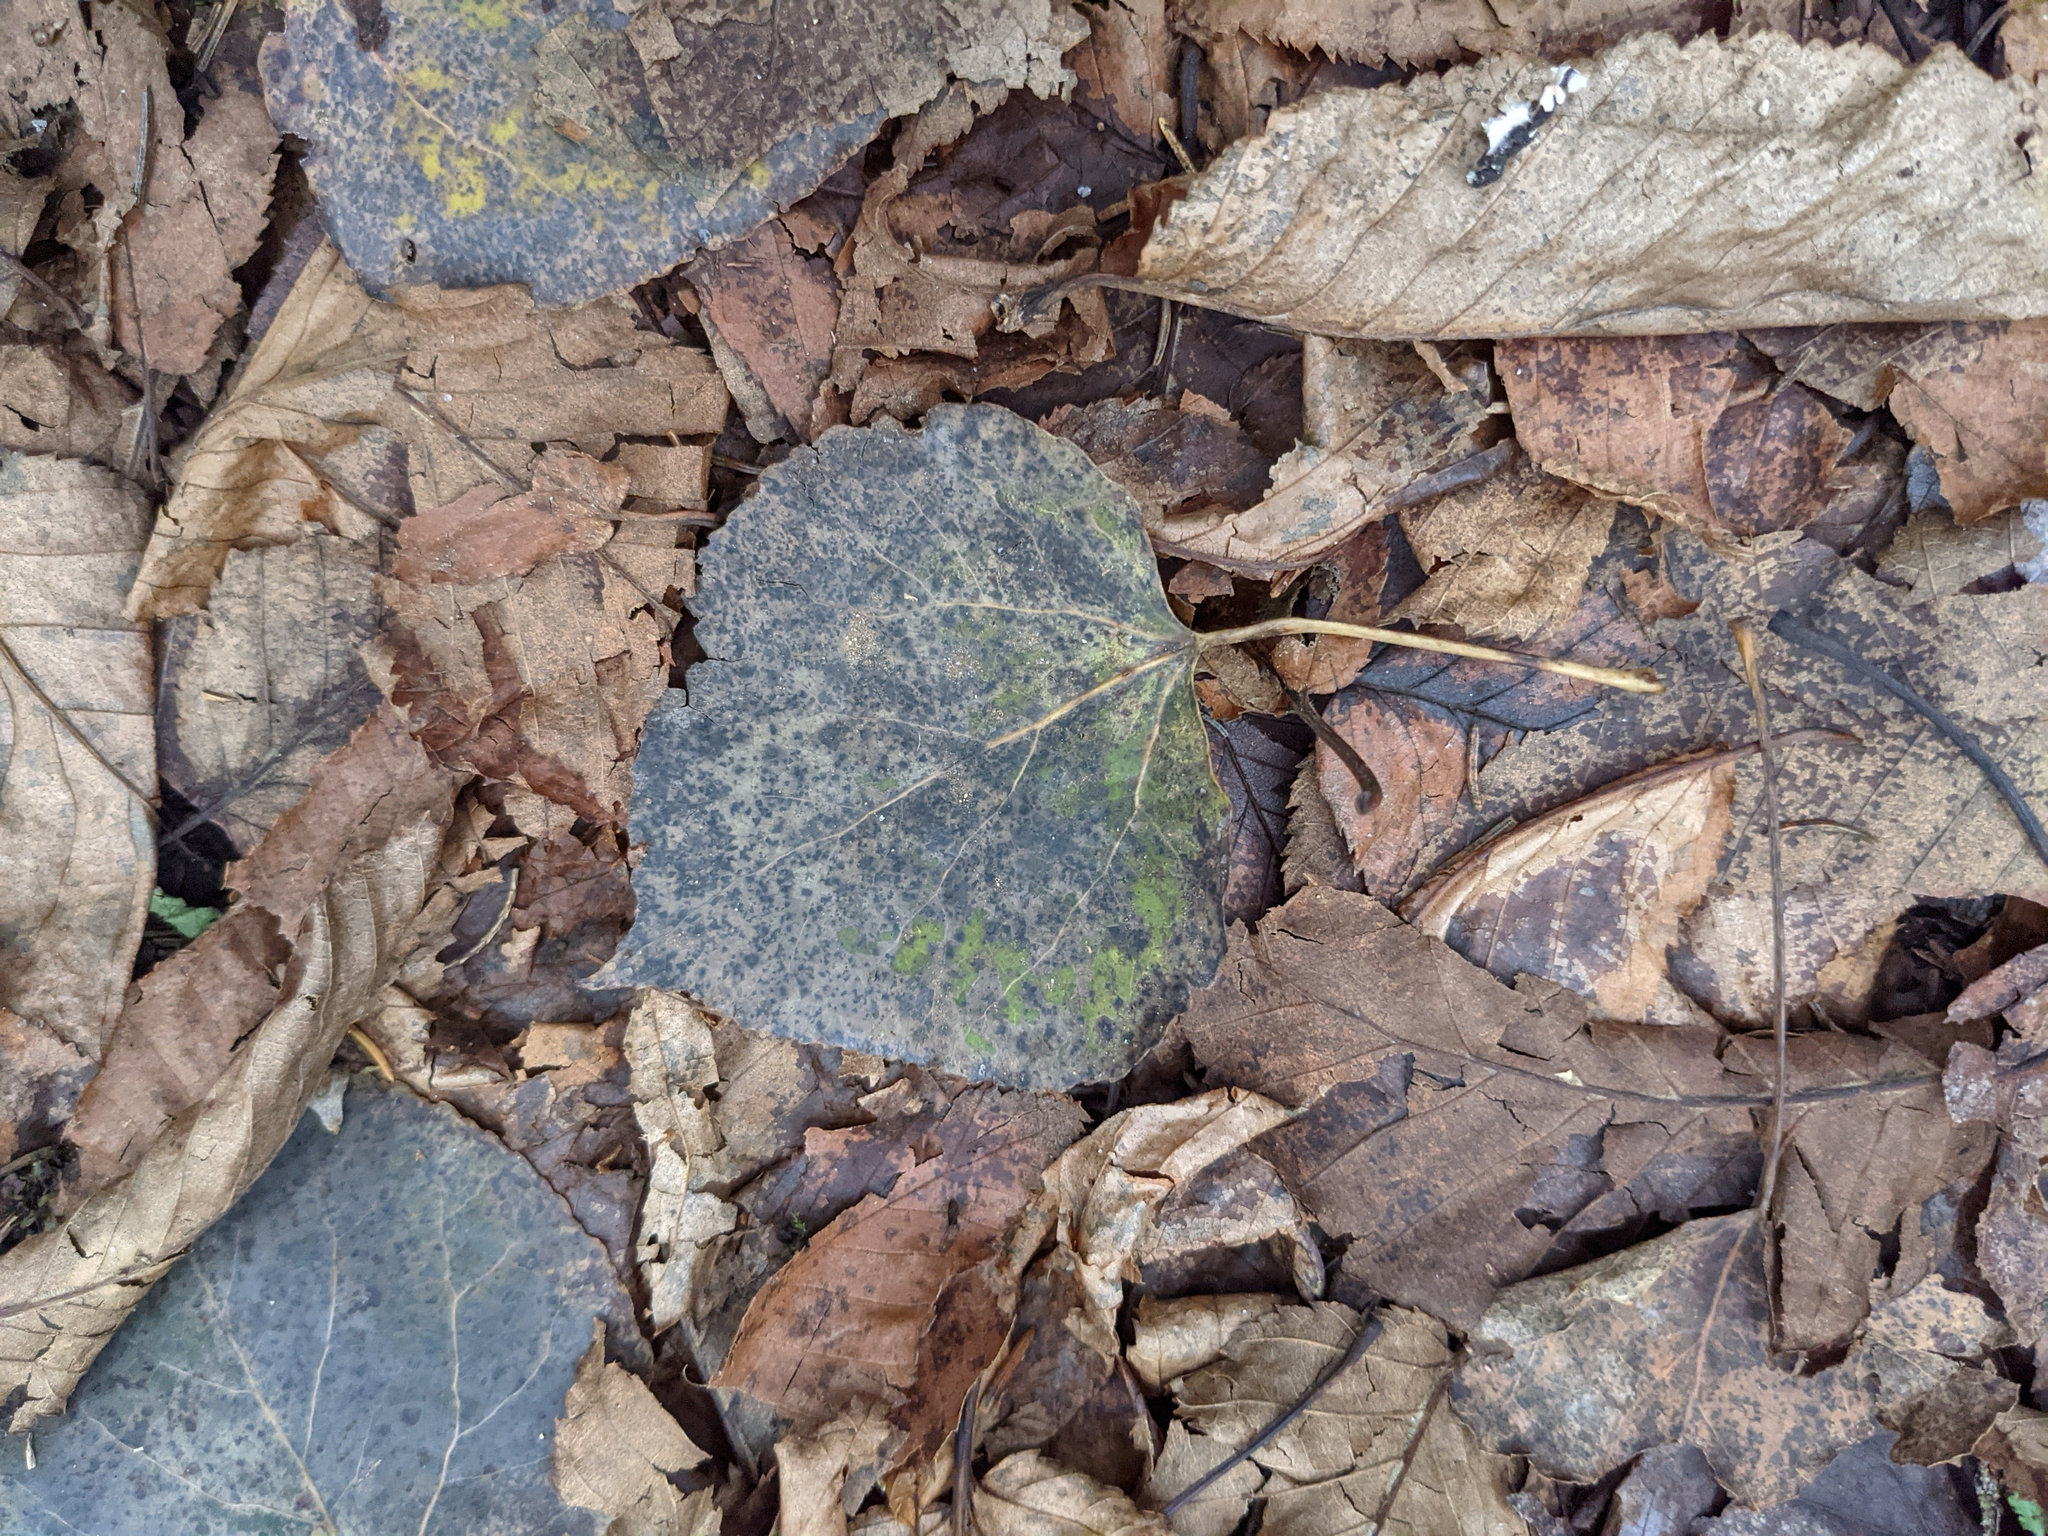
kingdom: Plantae
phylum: Tracheophyta
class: Magnoliopsida
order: Malpighiales
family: Salicaceae
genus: Populus
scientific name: Populus tremuloides
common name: Quaking aspen
